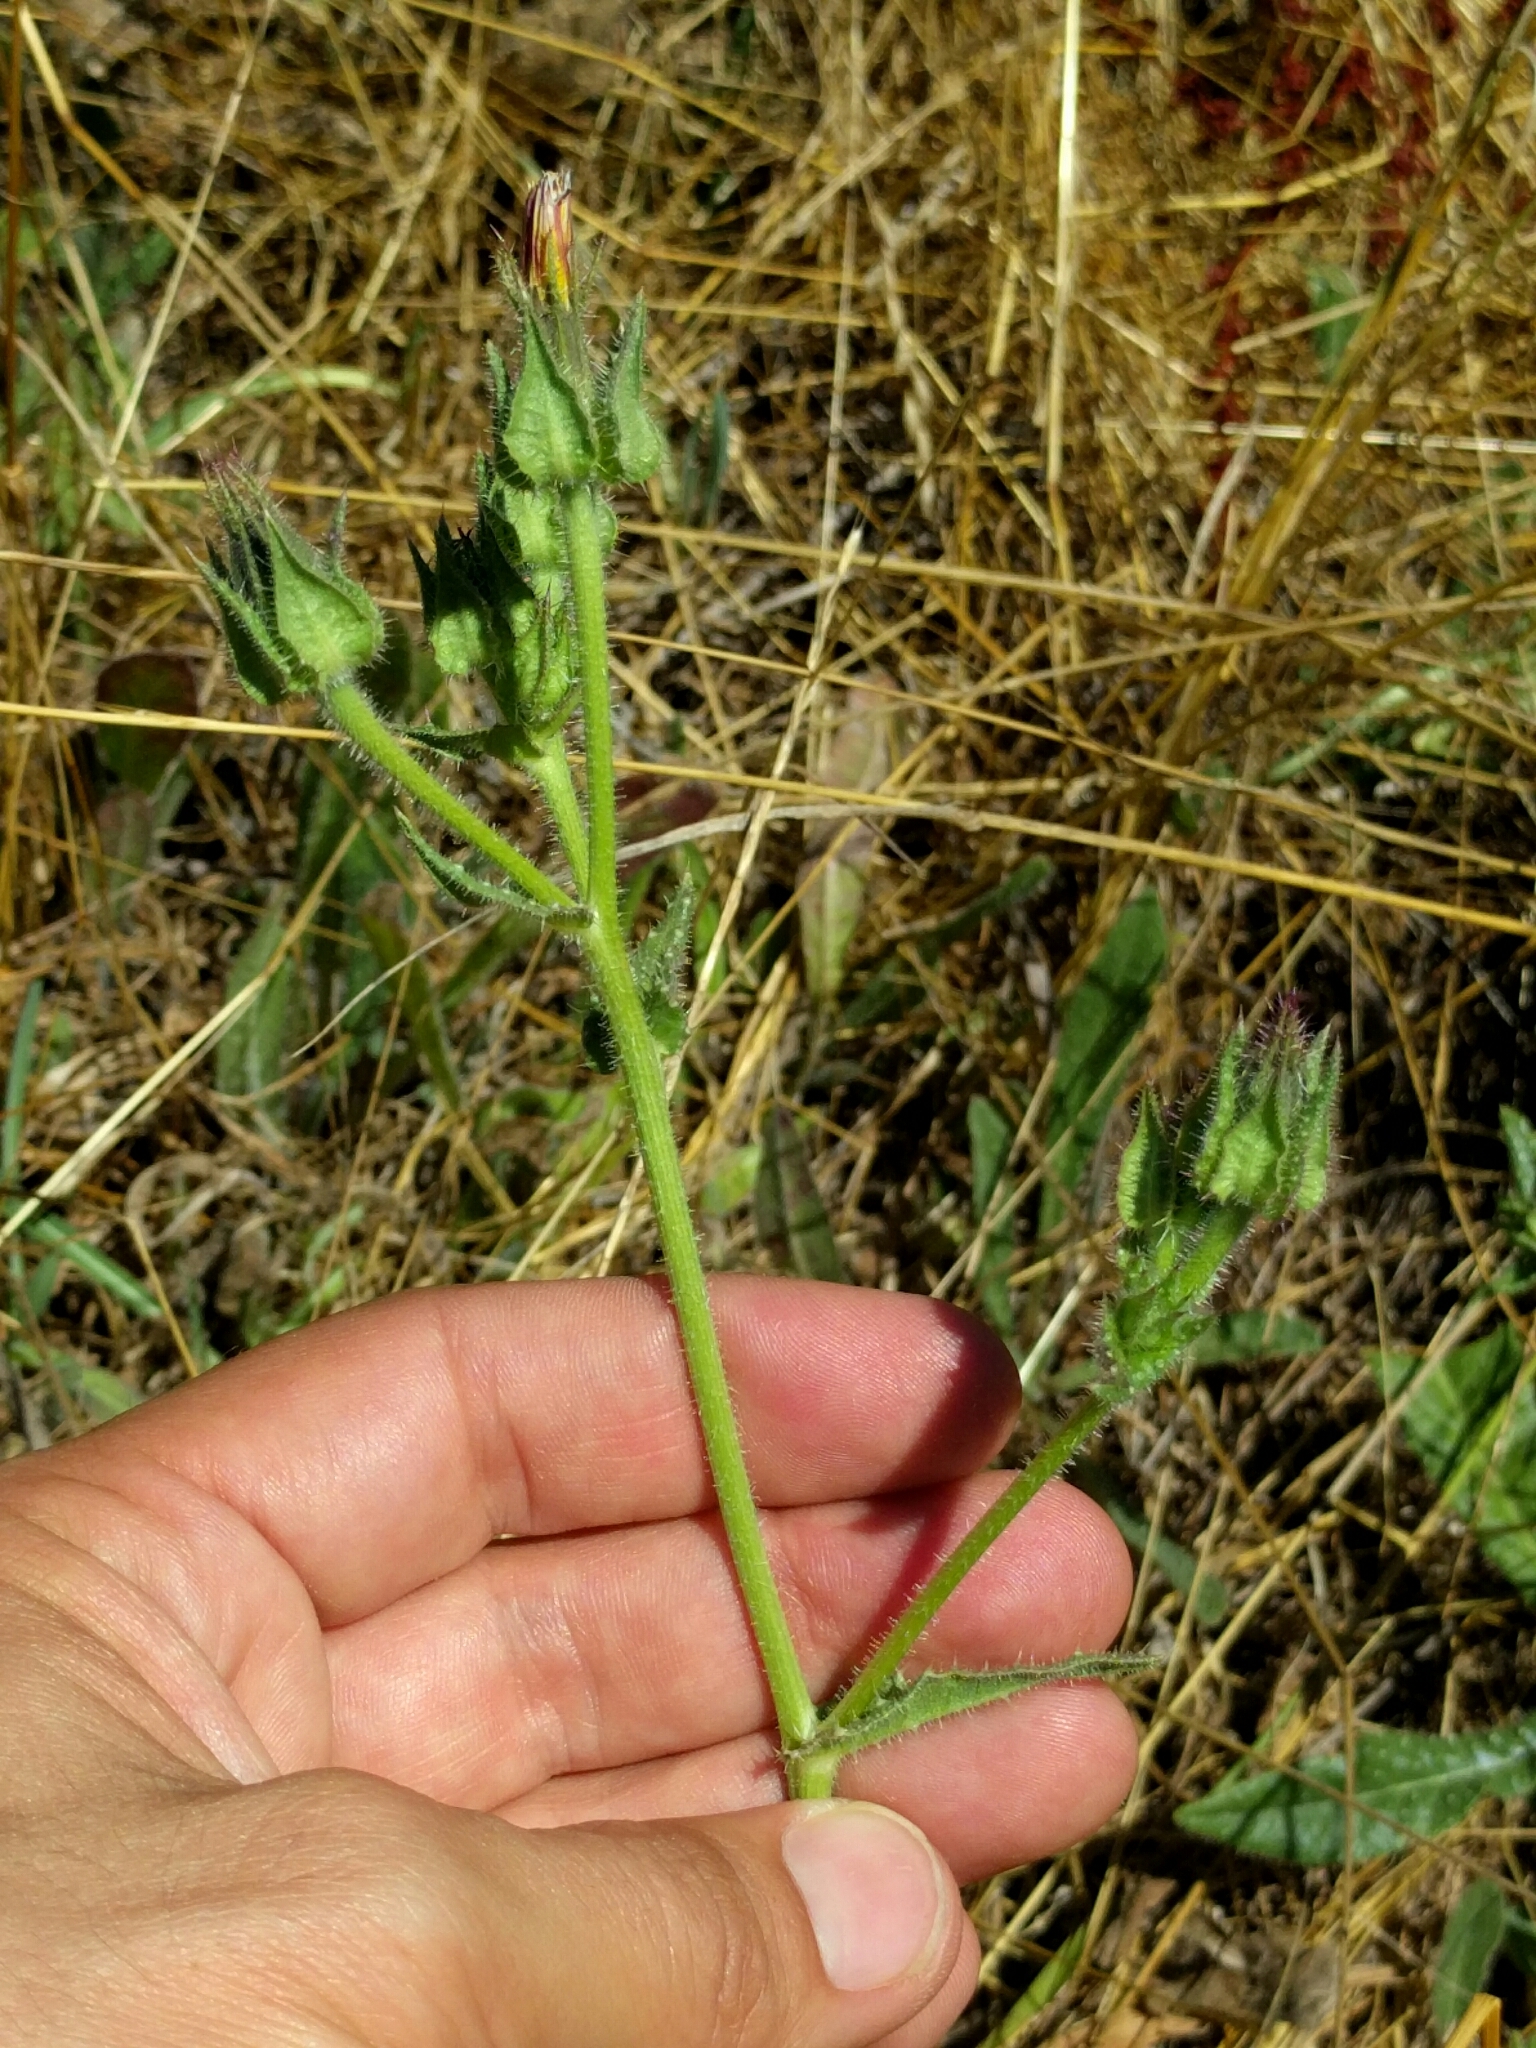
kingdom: Plantae
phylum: Tracheophyta
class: Magnoliopsida
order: Asterales
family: Asteraceae
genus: Helminthotheca
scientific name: Helminthotheca echioides
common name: Ox-tongue
